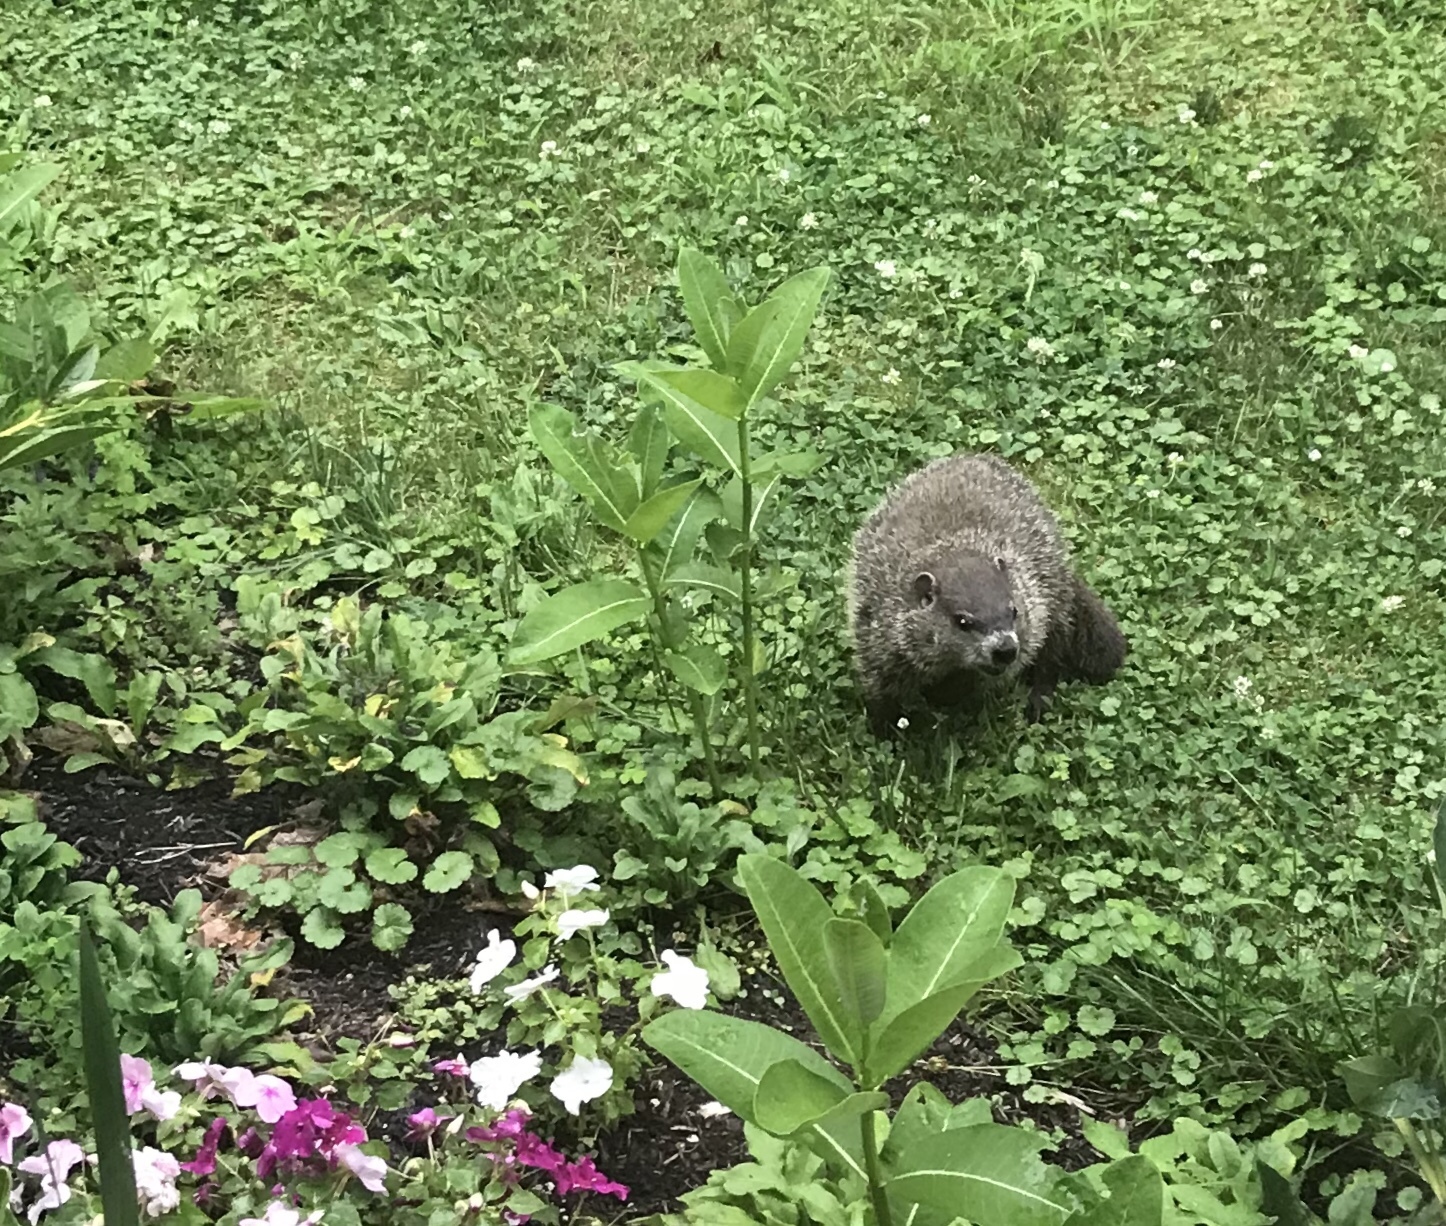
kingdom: Animalia
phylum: Chordata
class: Mammalia
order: Rodentia
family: Sciuridae
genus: Marmota
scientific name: Marmota monax
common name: Groundhog
